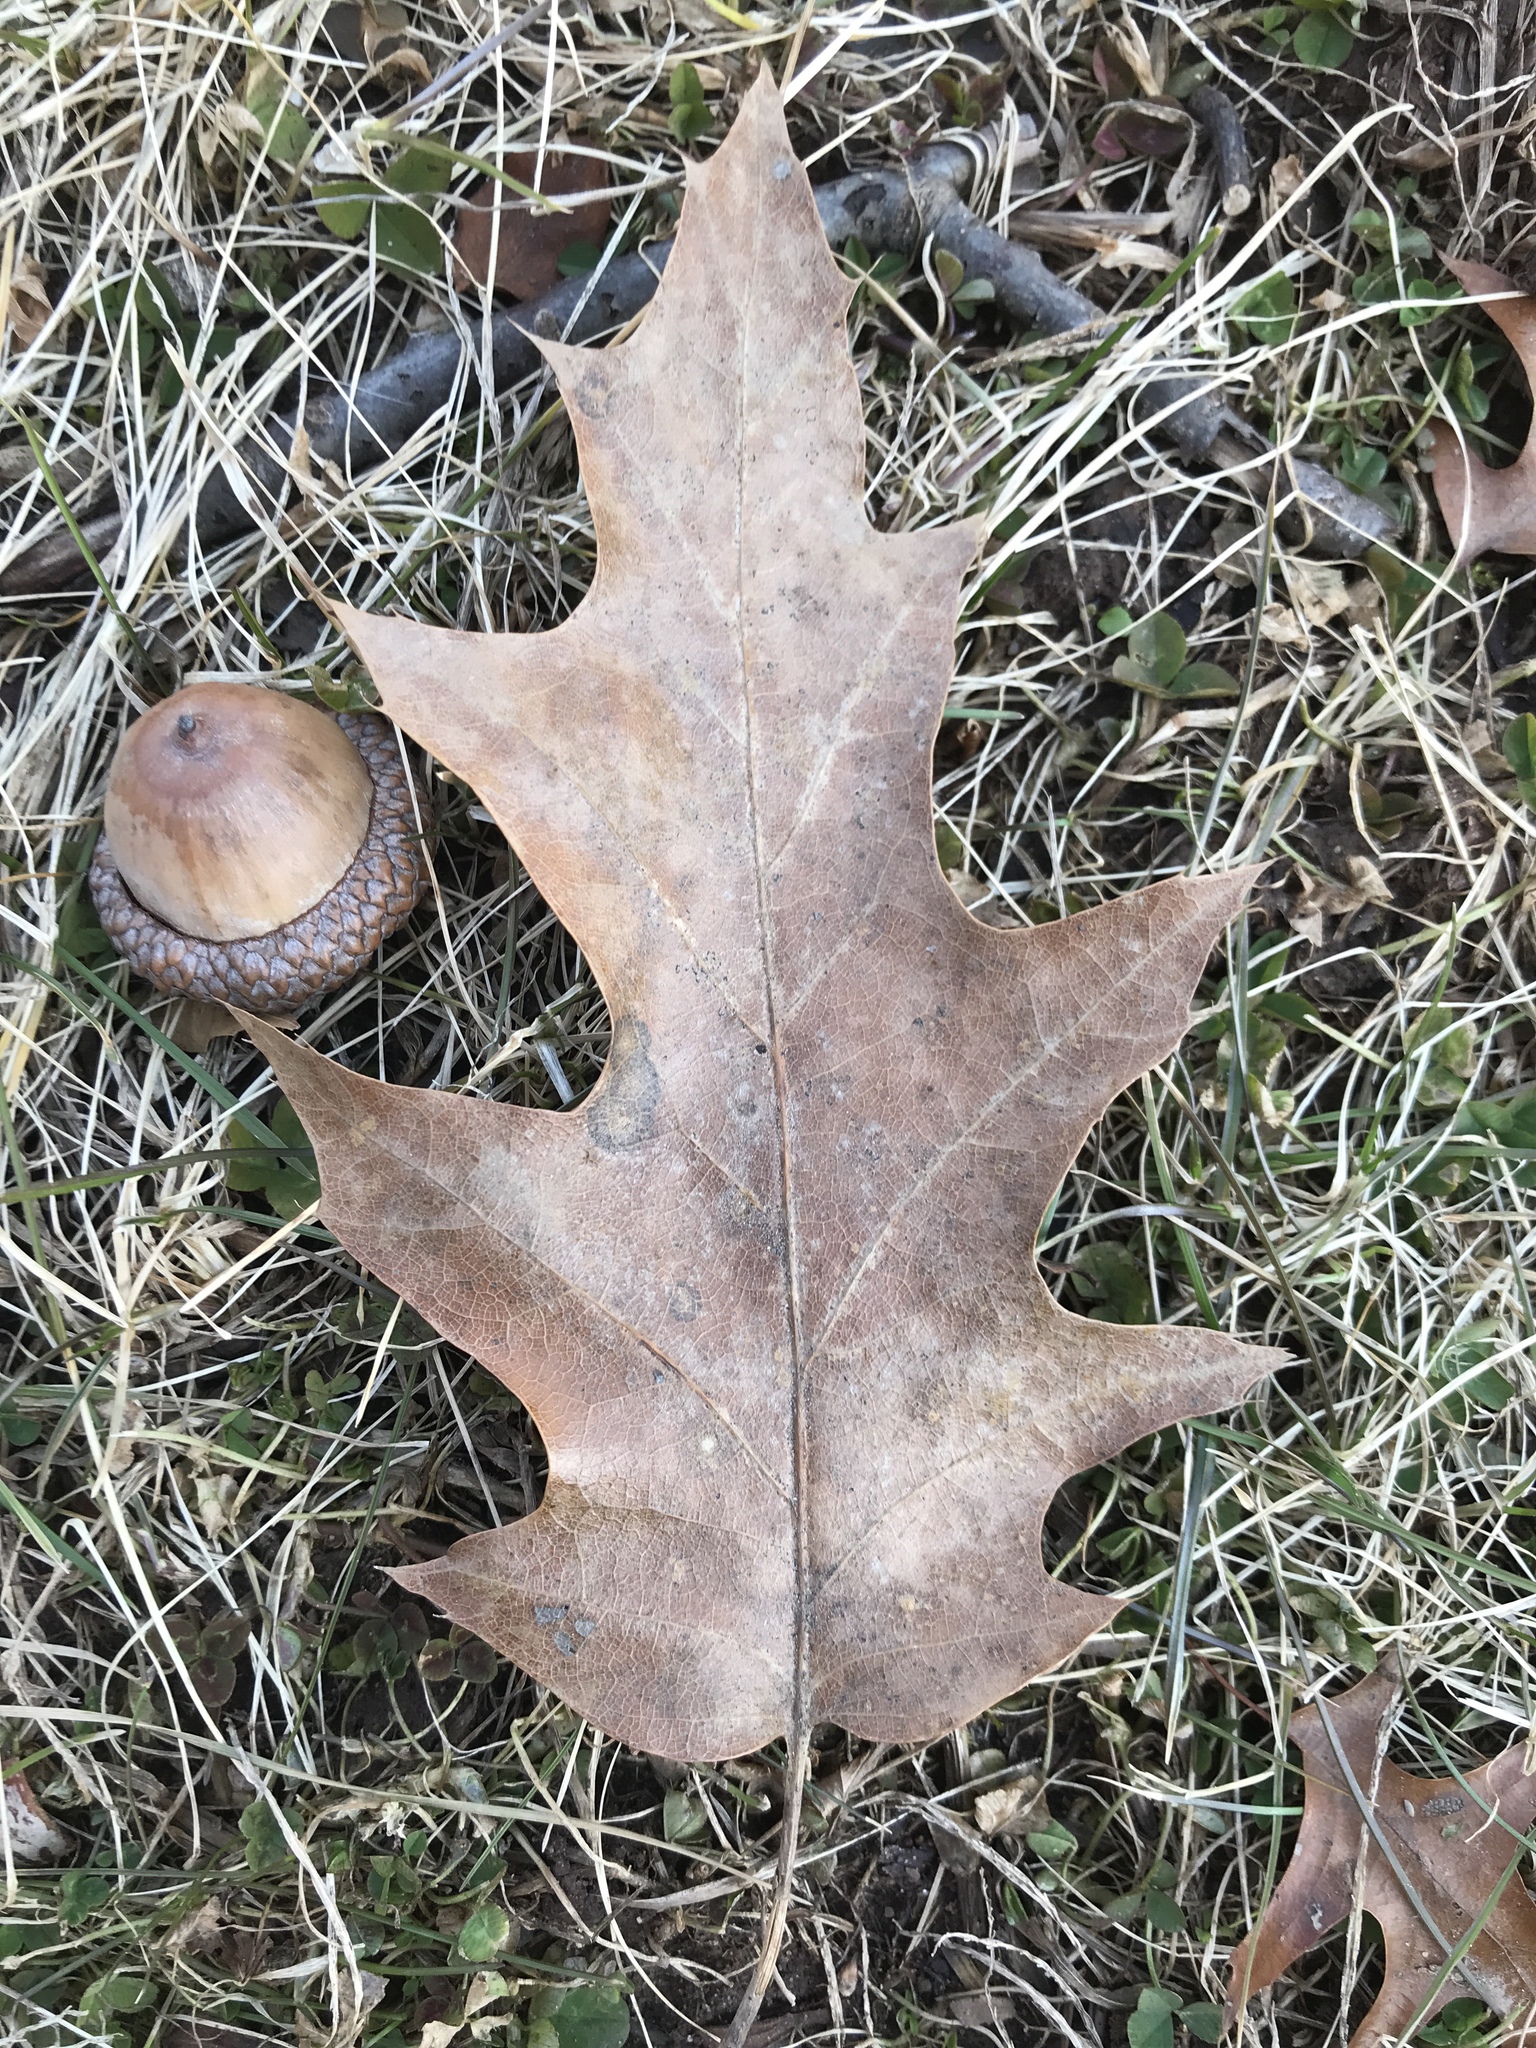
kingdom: Plantae
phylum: Tracheophyta
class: Magnoliopsida
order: Fagales
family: Fagaceae
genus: Quercus
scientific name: Quercus rubra
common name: Red oak
